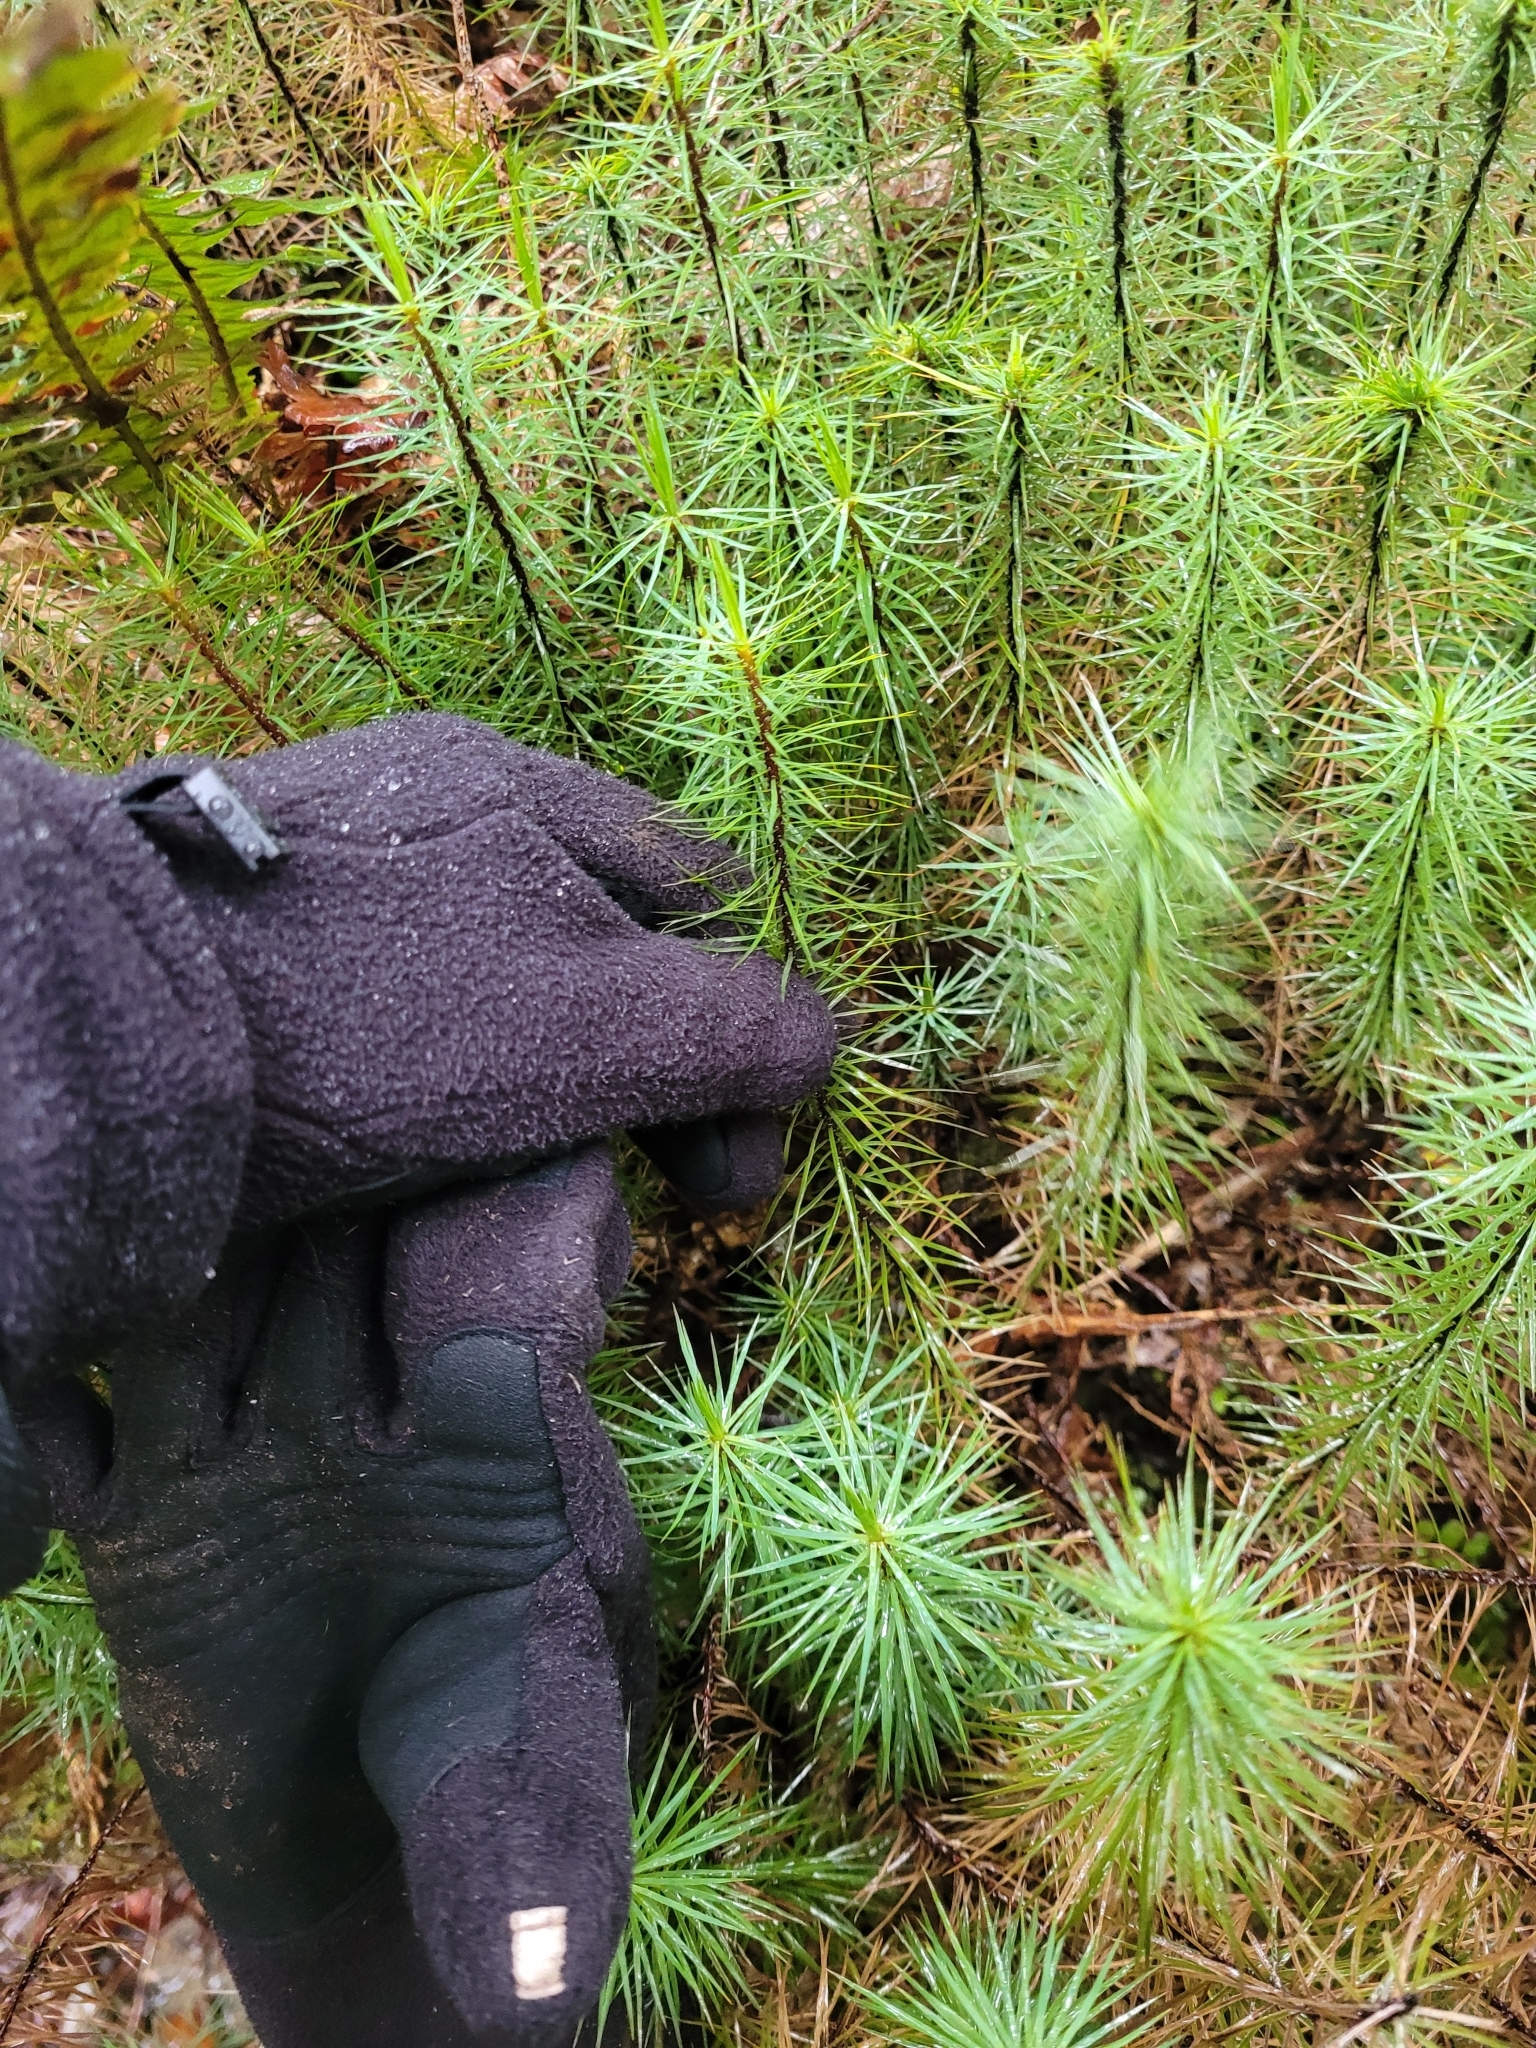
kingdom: Plantae
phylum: Bryophyta
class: Polytrichopsida
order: Polytrichales
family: Polytrichaceae
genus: Dawsonia
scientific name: Dawsonia superba
